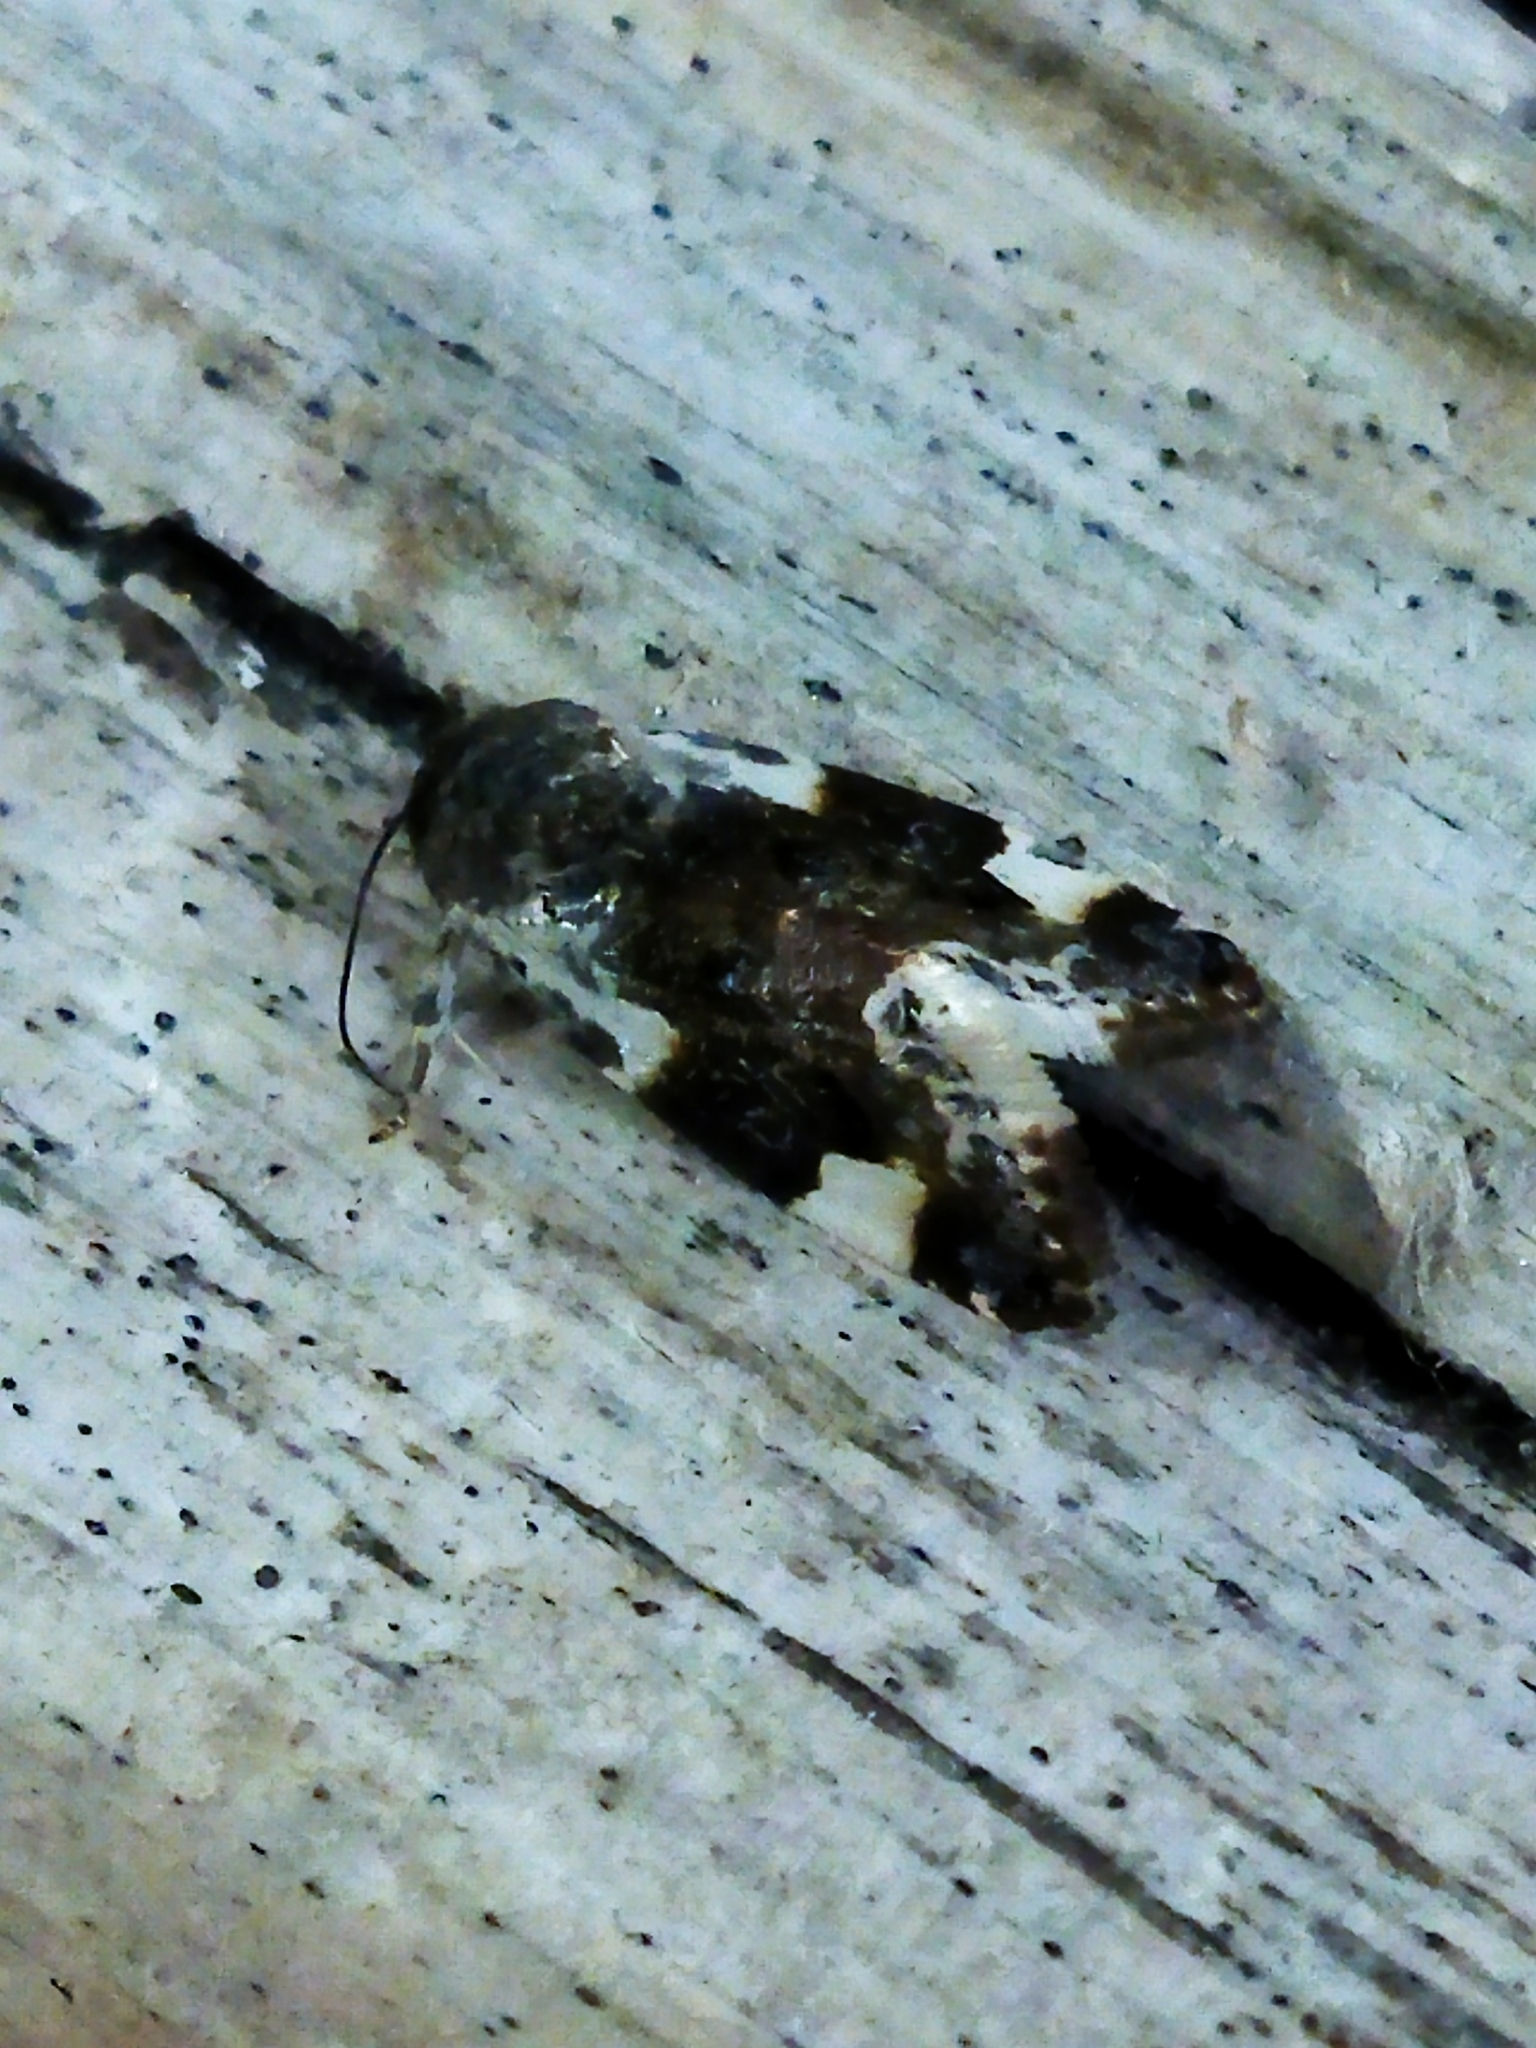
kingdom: Animalia
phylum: Arthropoda
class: Insecta
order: Lepidoptera
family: Noctuidae
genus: Acontia
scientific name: Acontia lucida
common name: Pale shoulder
